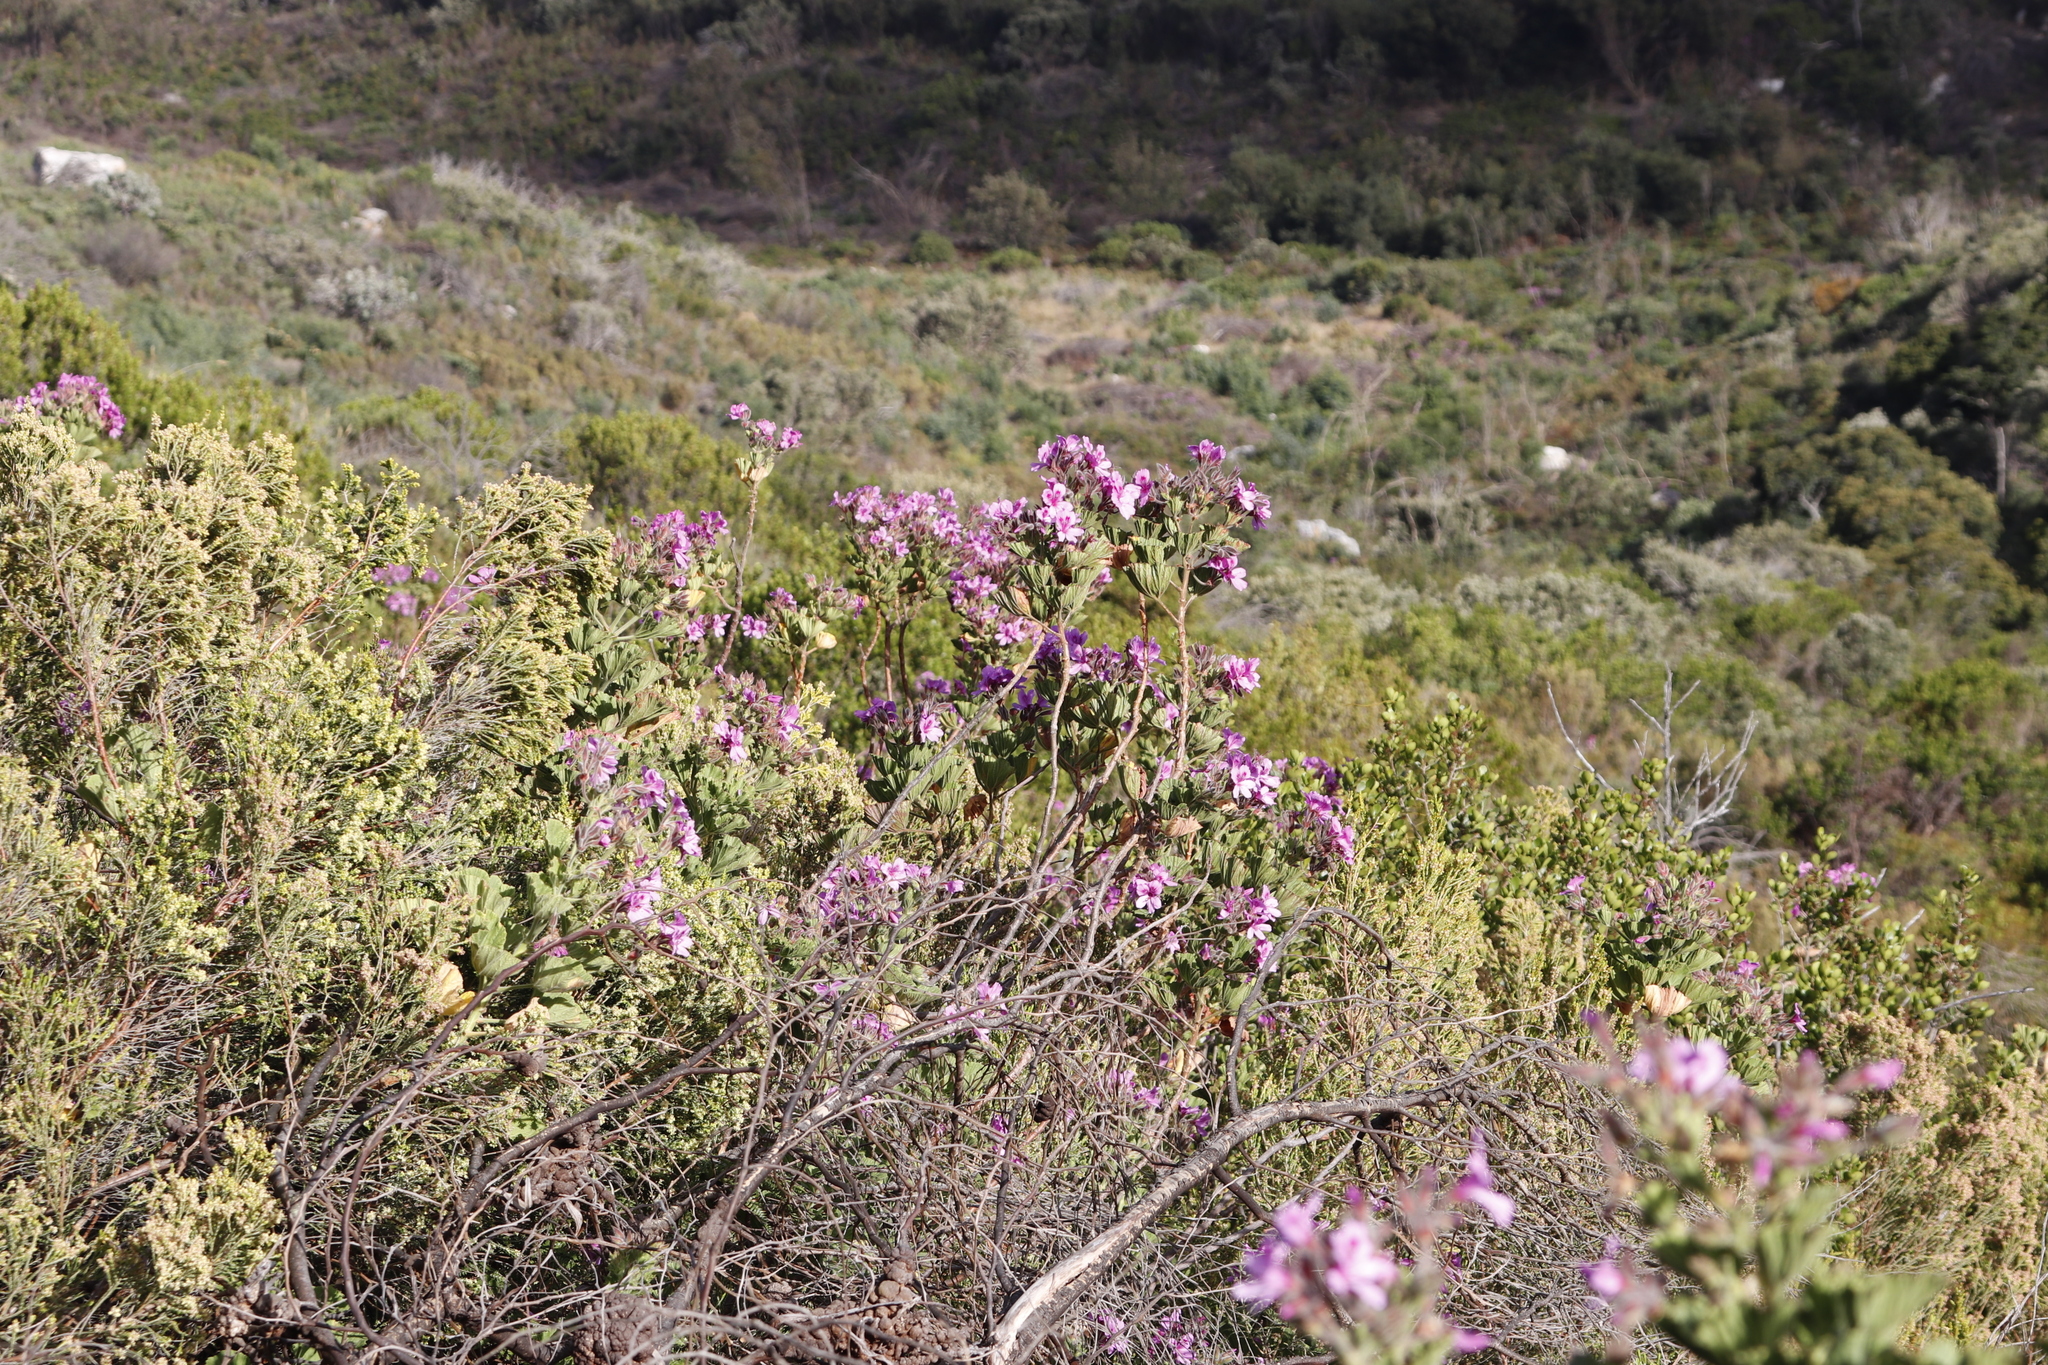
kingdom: Plantae
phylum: Tracheophyta
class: Magnoliopsida
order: Geraniales
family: Geraniaceae
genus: Pelargonium
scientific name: Pelargonium cucullatum
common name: Tree pelargonium
